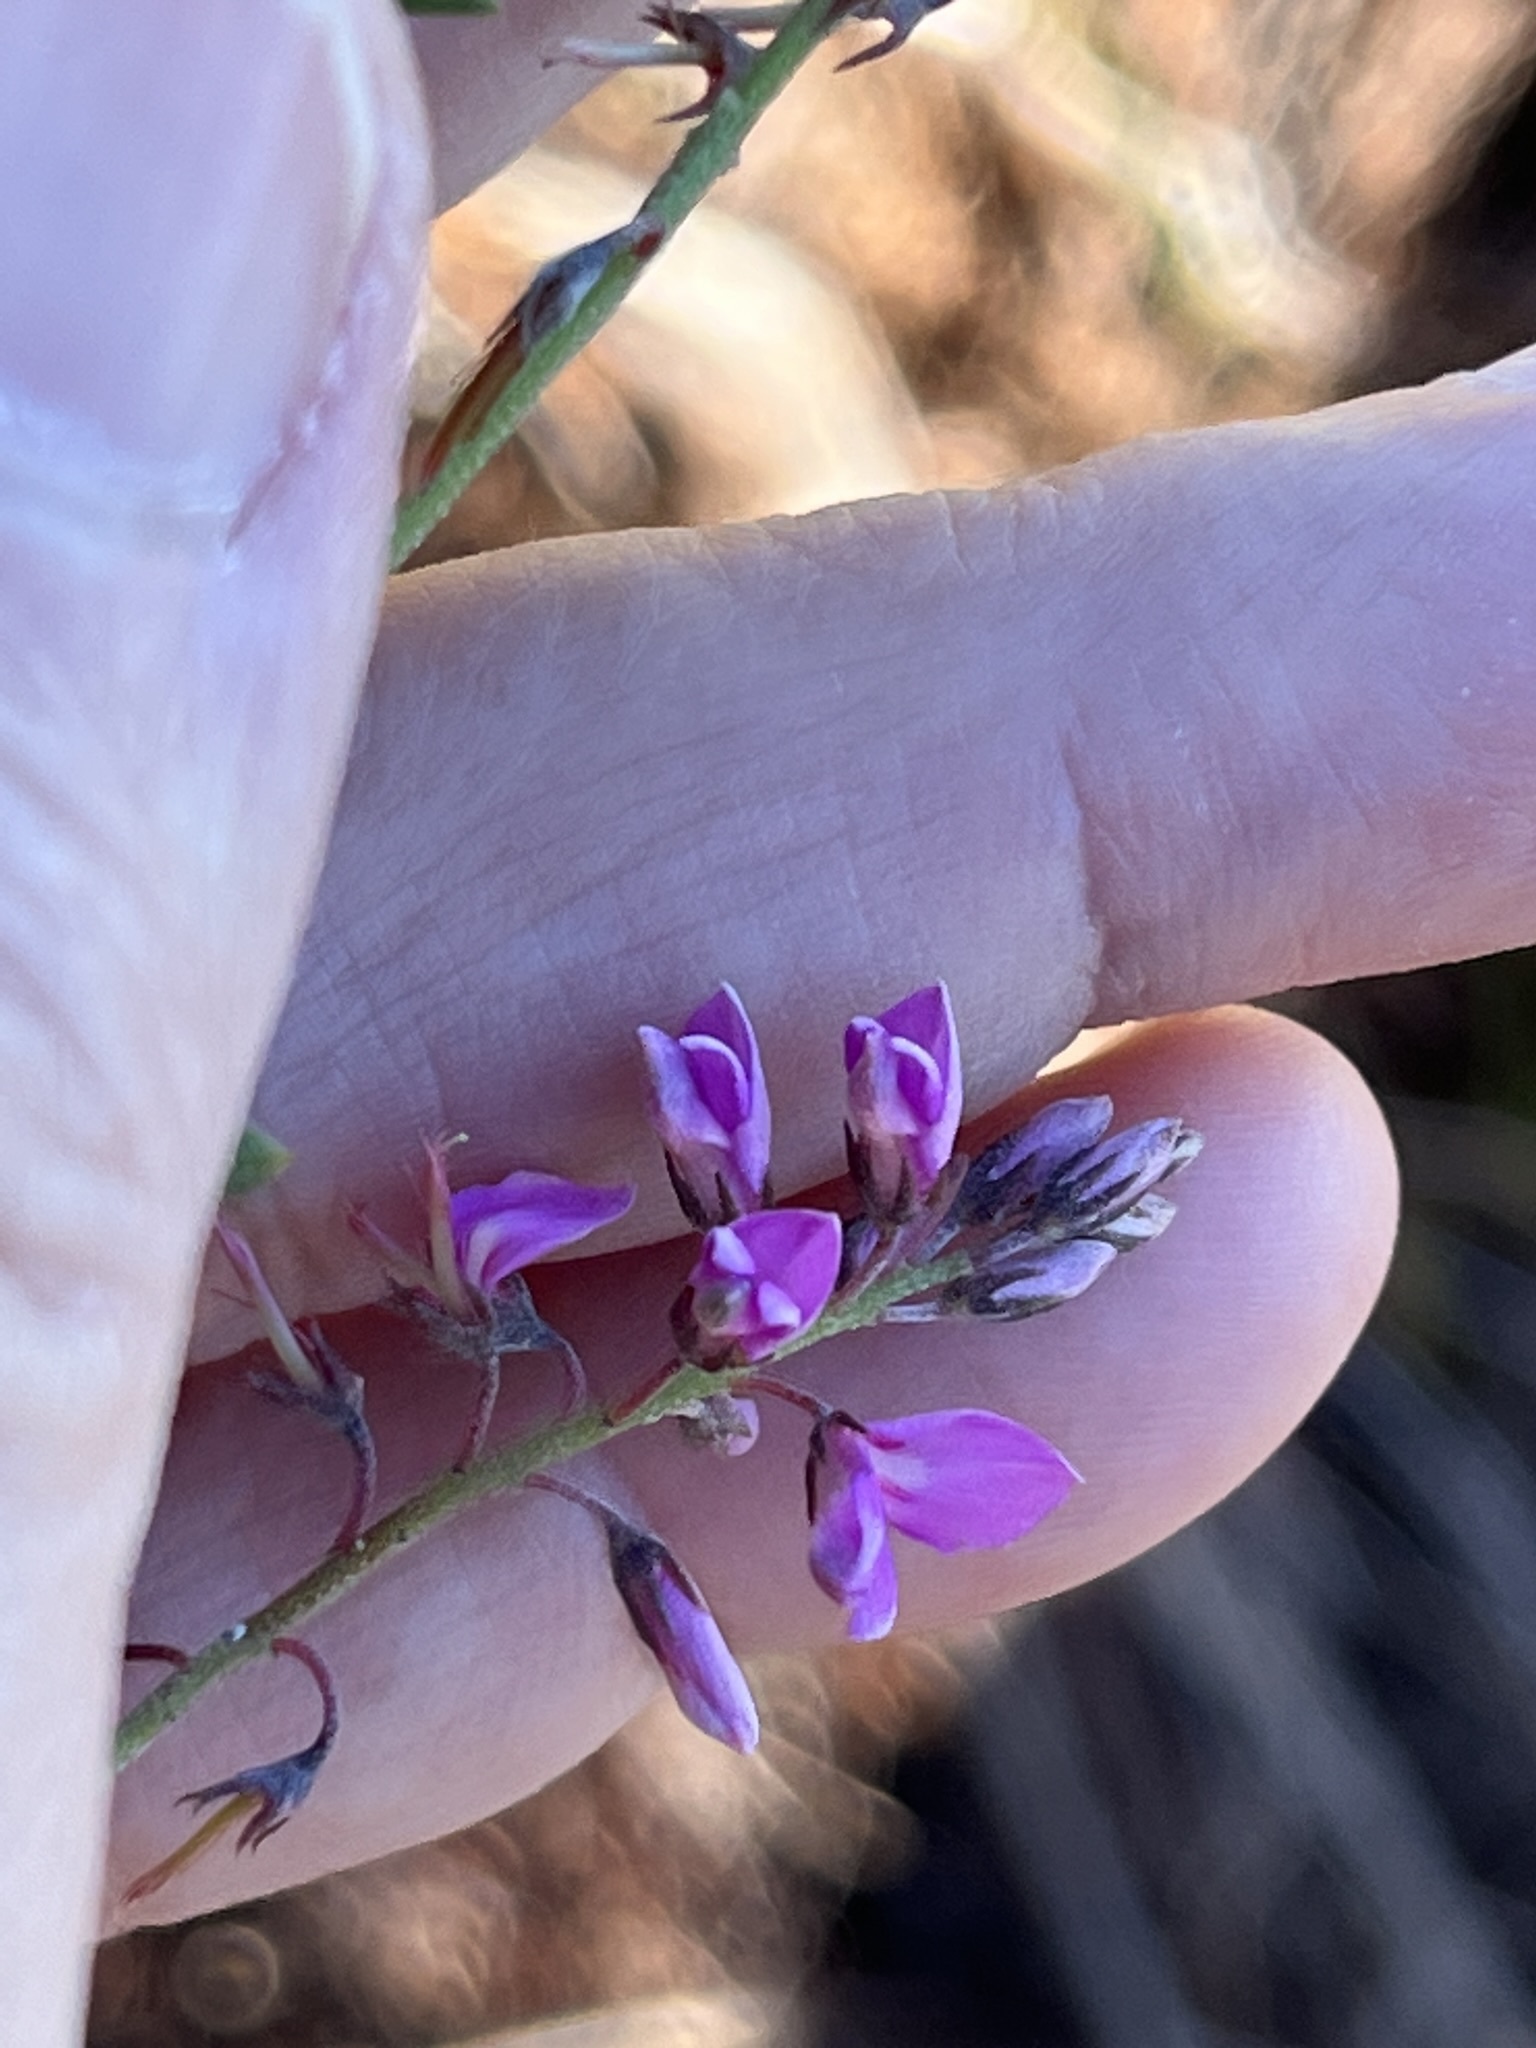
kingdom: Plantae
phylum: Tracheophyta
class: Magnoliopsida
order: Fabales
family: Fabaceae
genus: Indigofera
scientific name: Indigofera angustifolia
